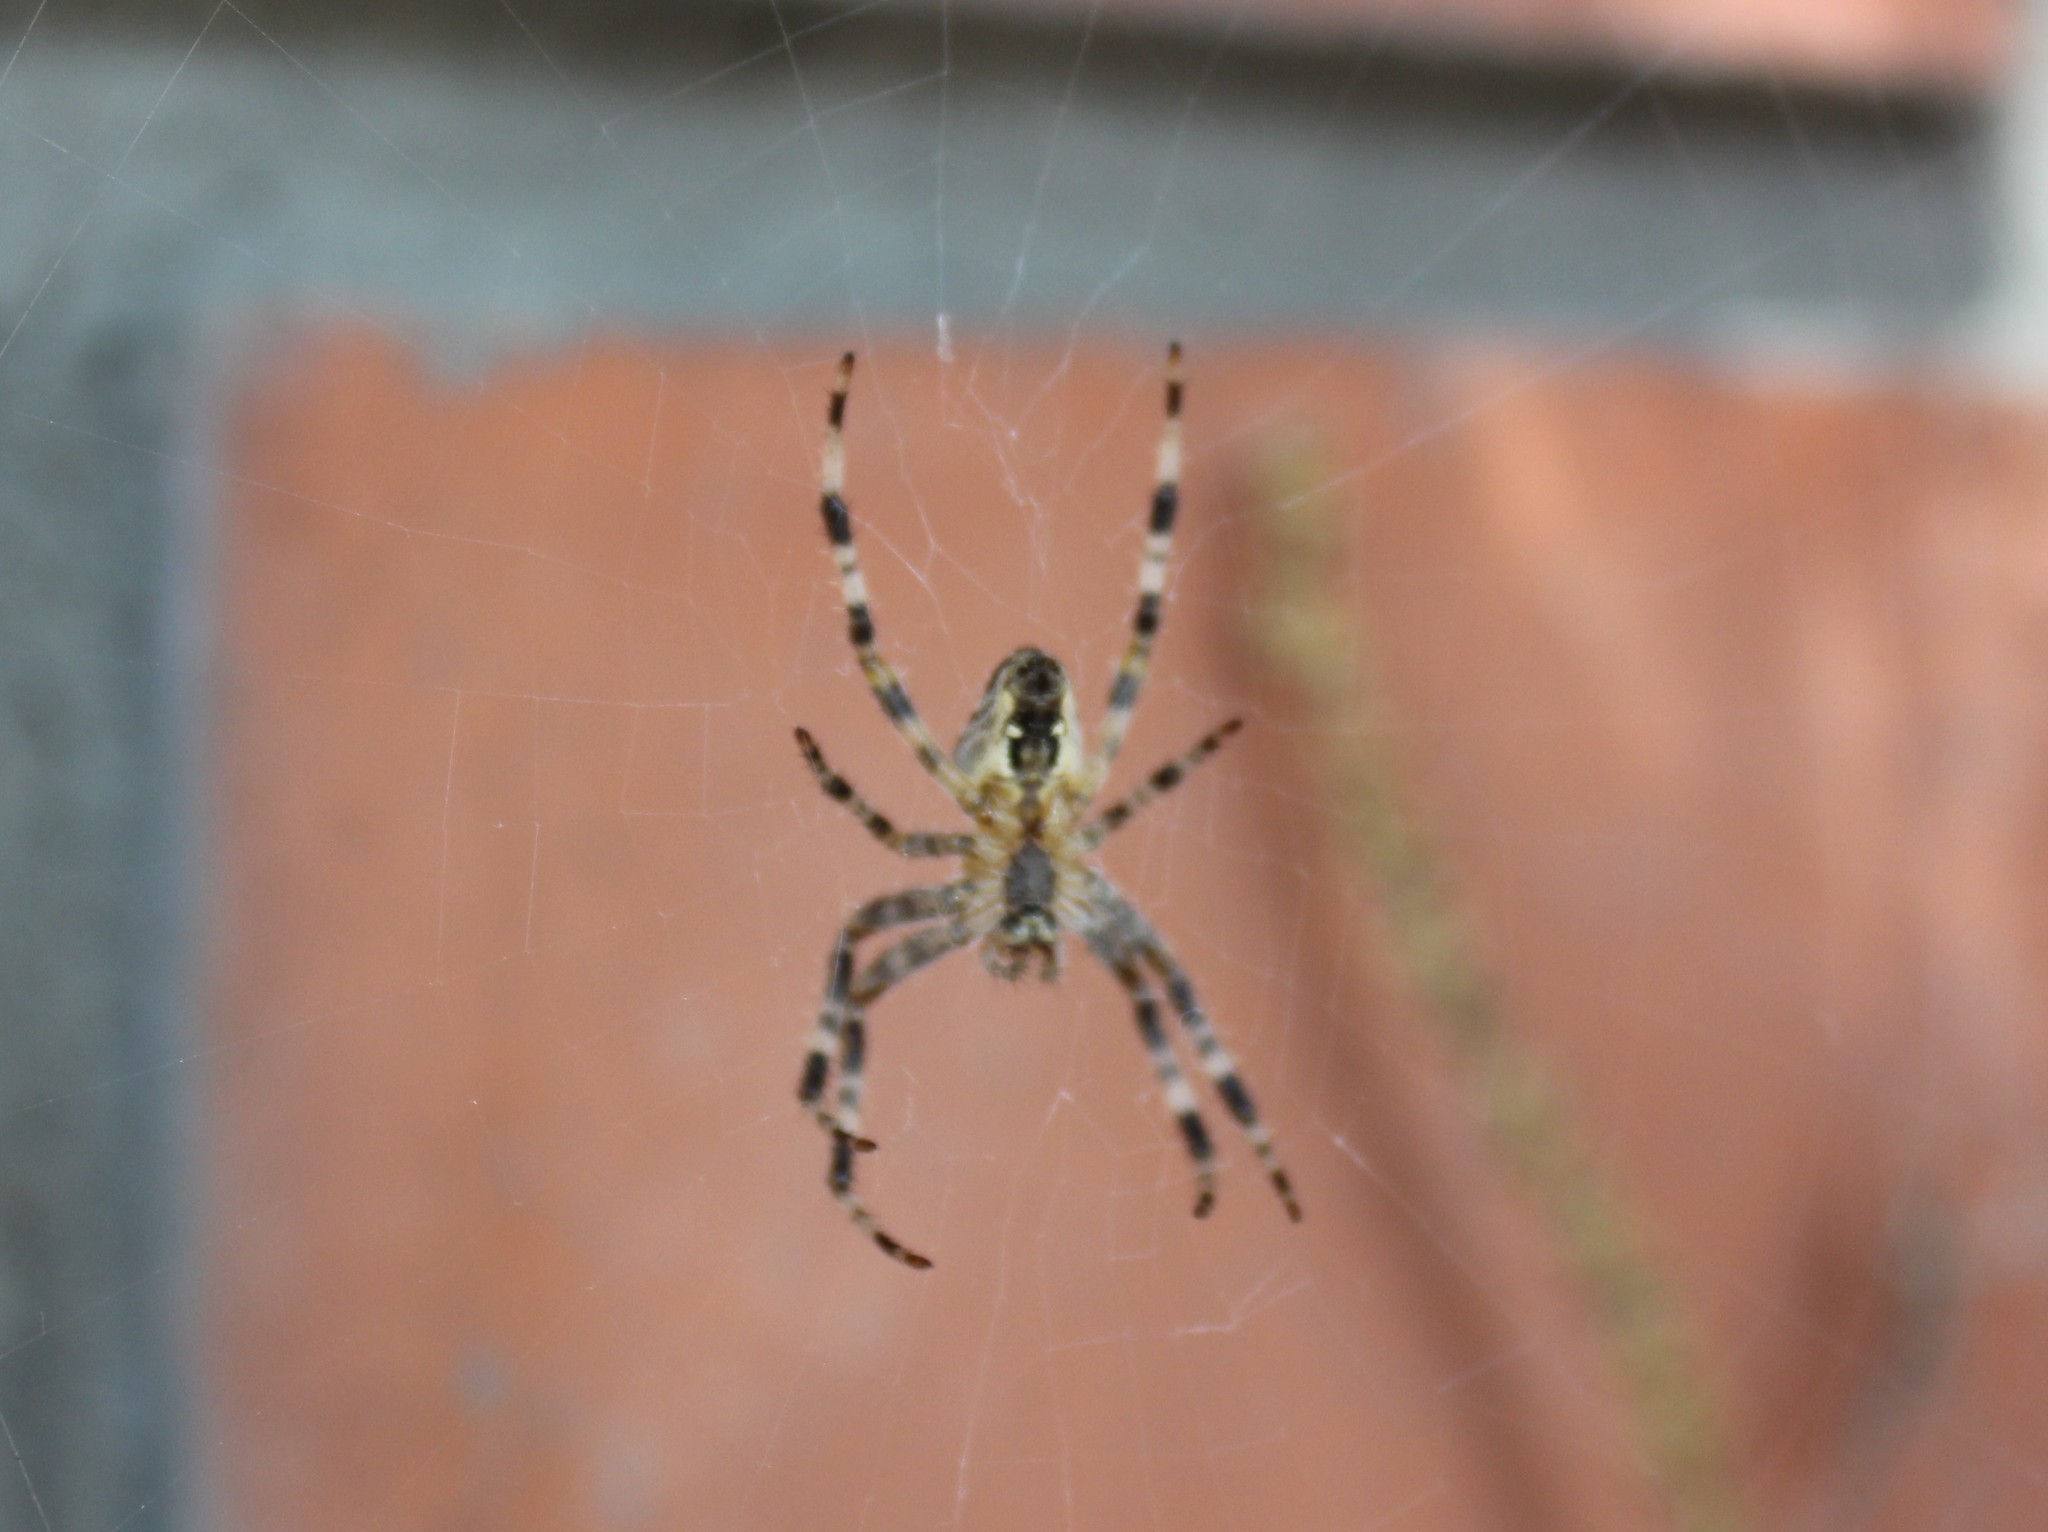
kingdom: Animalia
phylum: Arthropoda
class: Arachnida
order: Araneae
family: Araneidae
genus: Araneus
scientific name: Araneus diadematus
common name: Cross orbweaver
